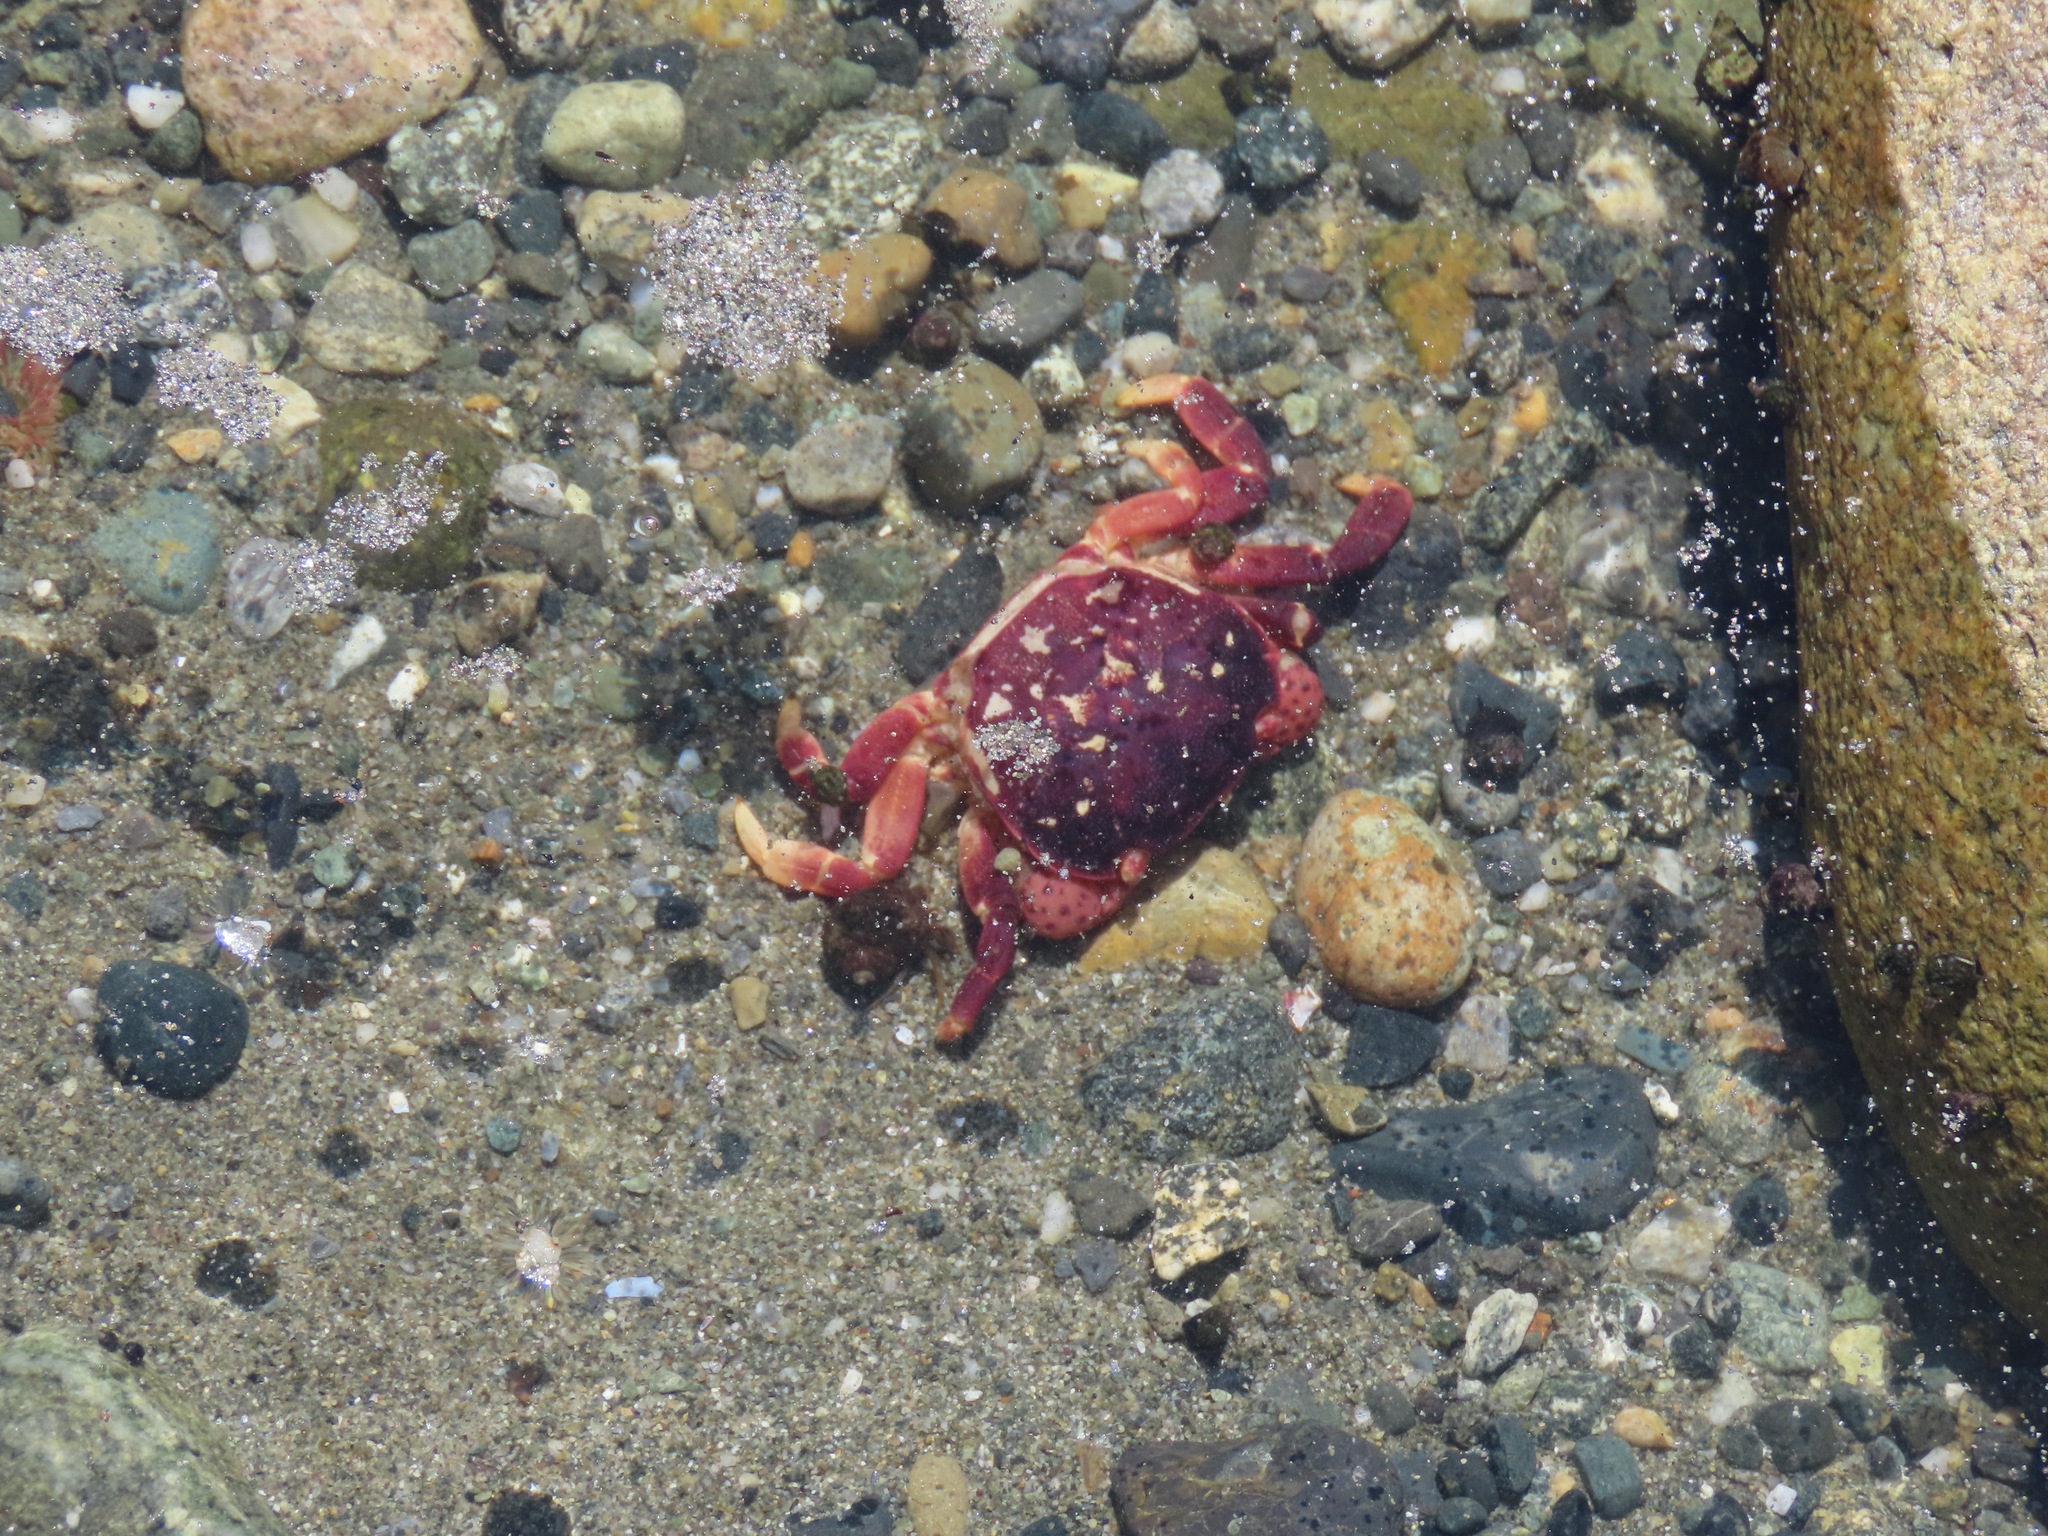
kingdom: Animalia
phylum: Arthropoda
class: Malacostraca
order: Decapoda
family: Varunidae
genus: Hemigrapsus
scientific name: Hemigrapsus nudus
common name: Purple shore crab
